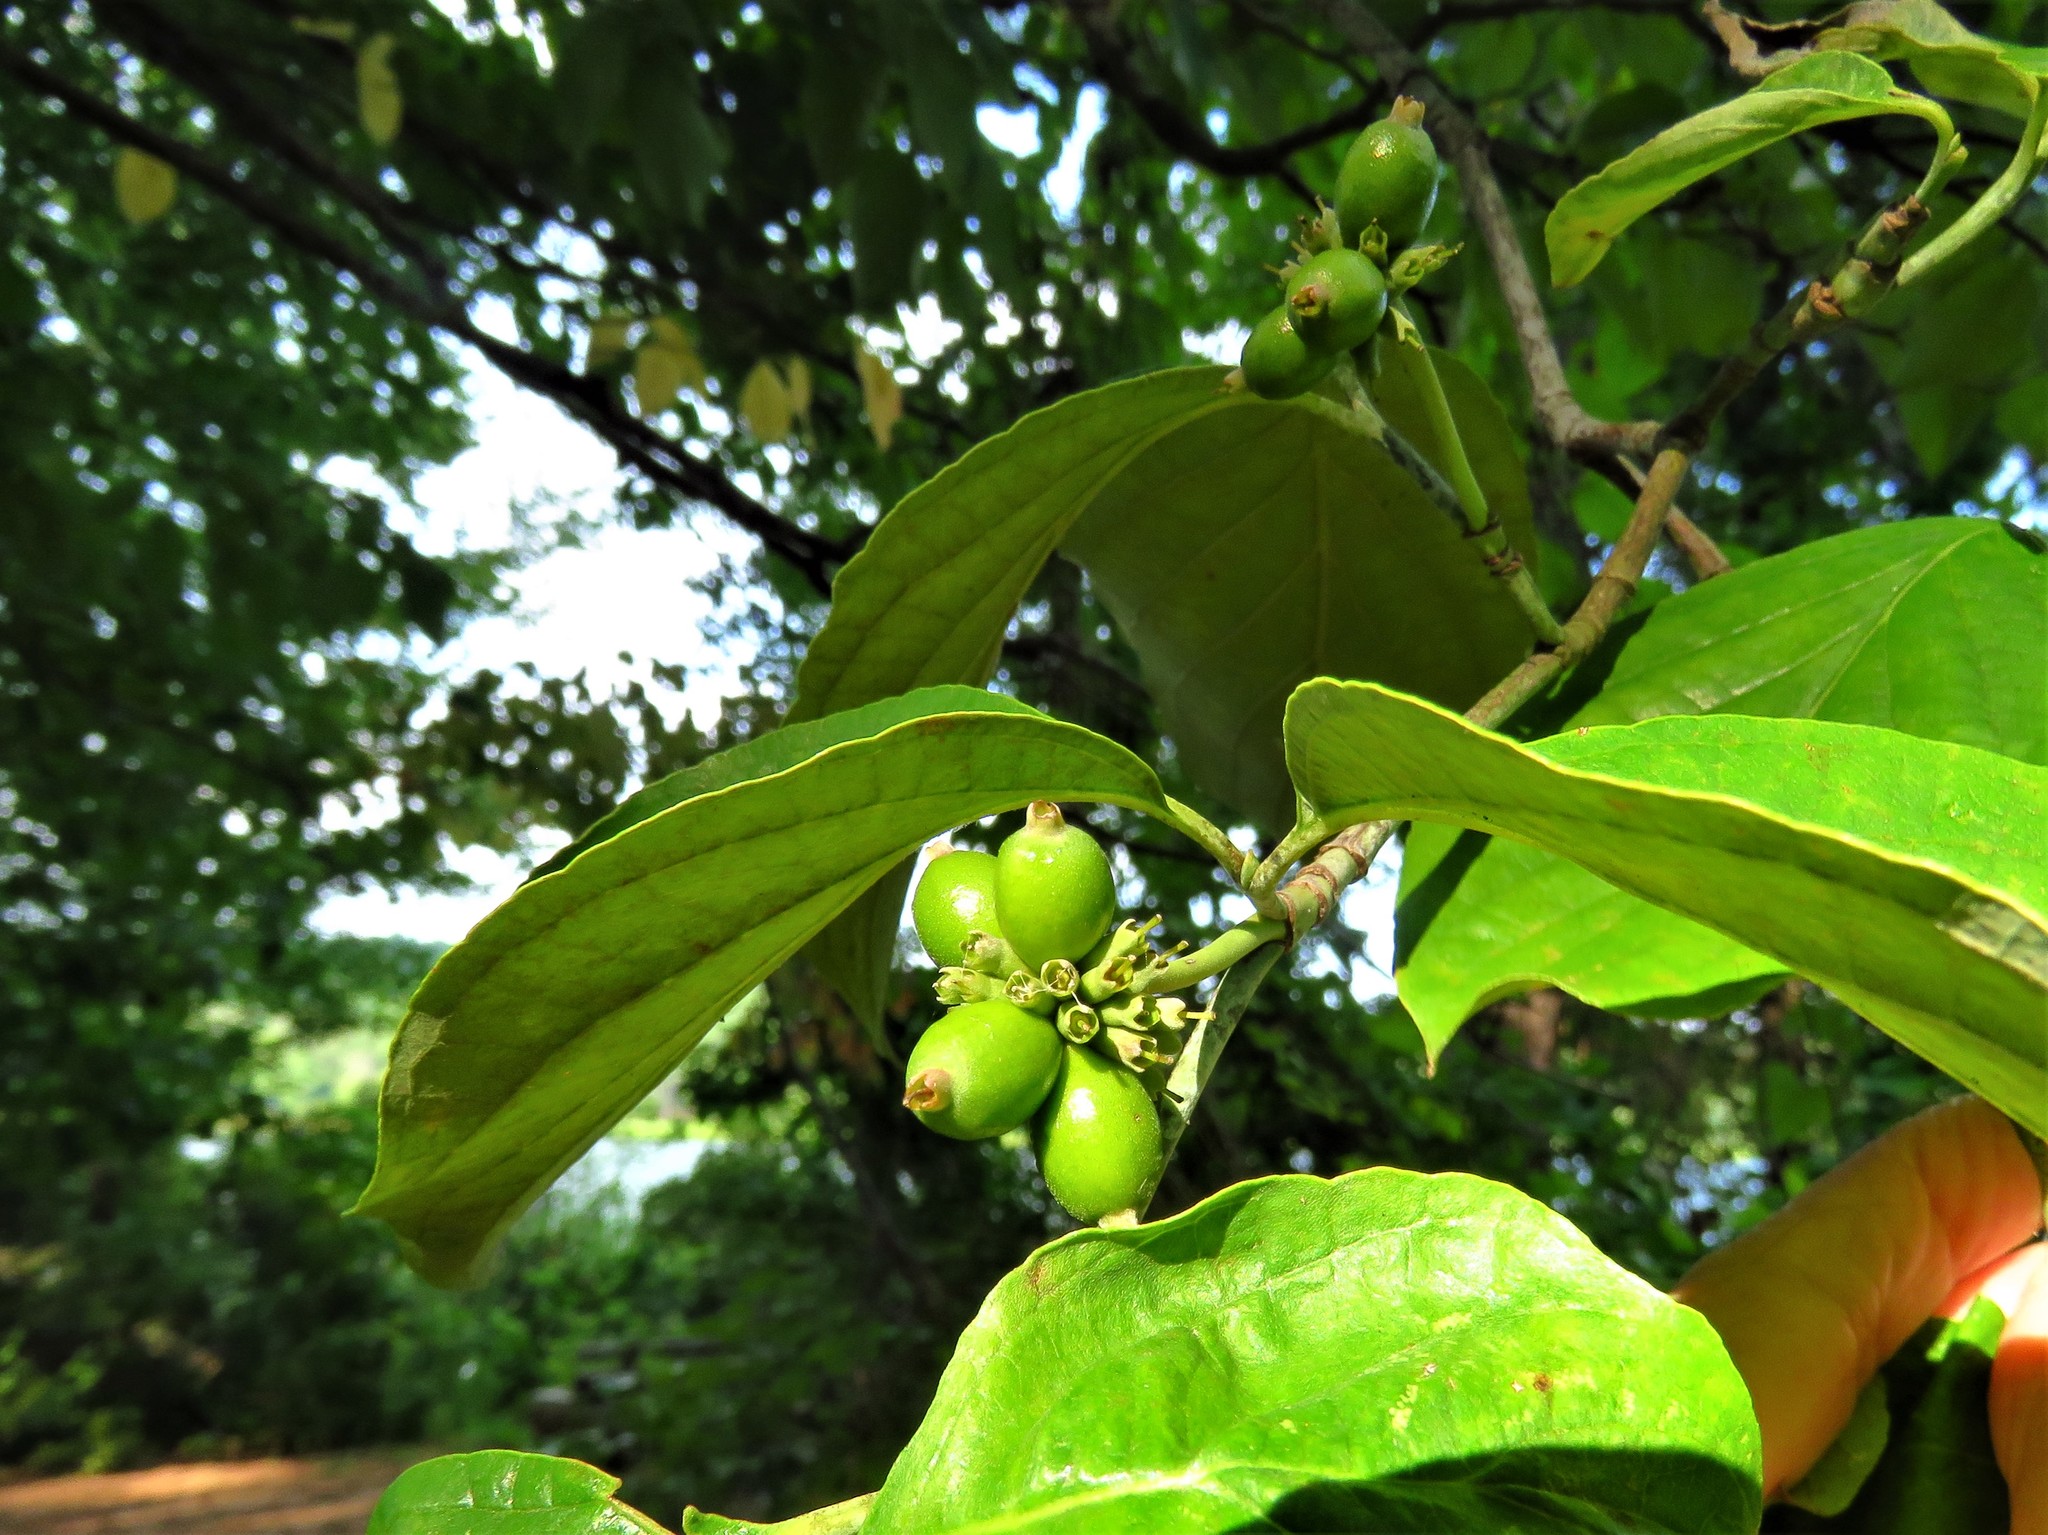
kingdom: Plantae
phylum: Tracheophyta
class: Magnoliopsida
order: Cornales
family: Cornaceae
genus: Cornus
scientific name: Cornus florida
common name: Flowering dogwood
